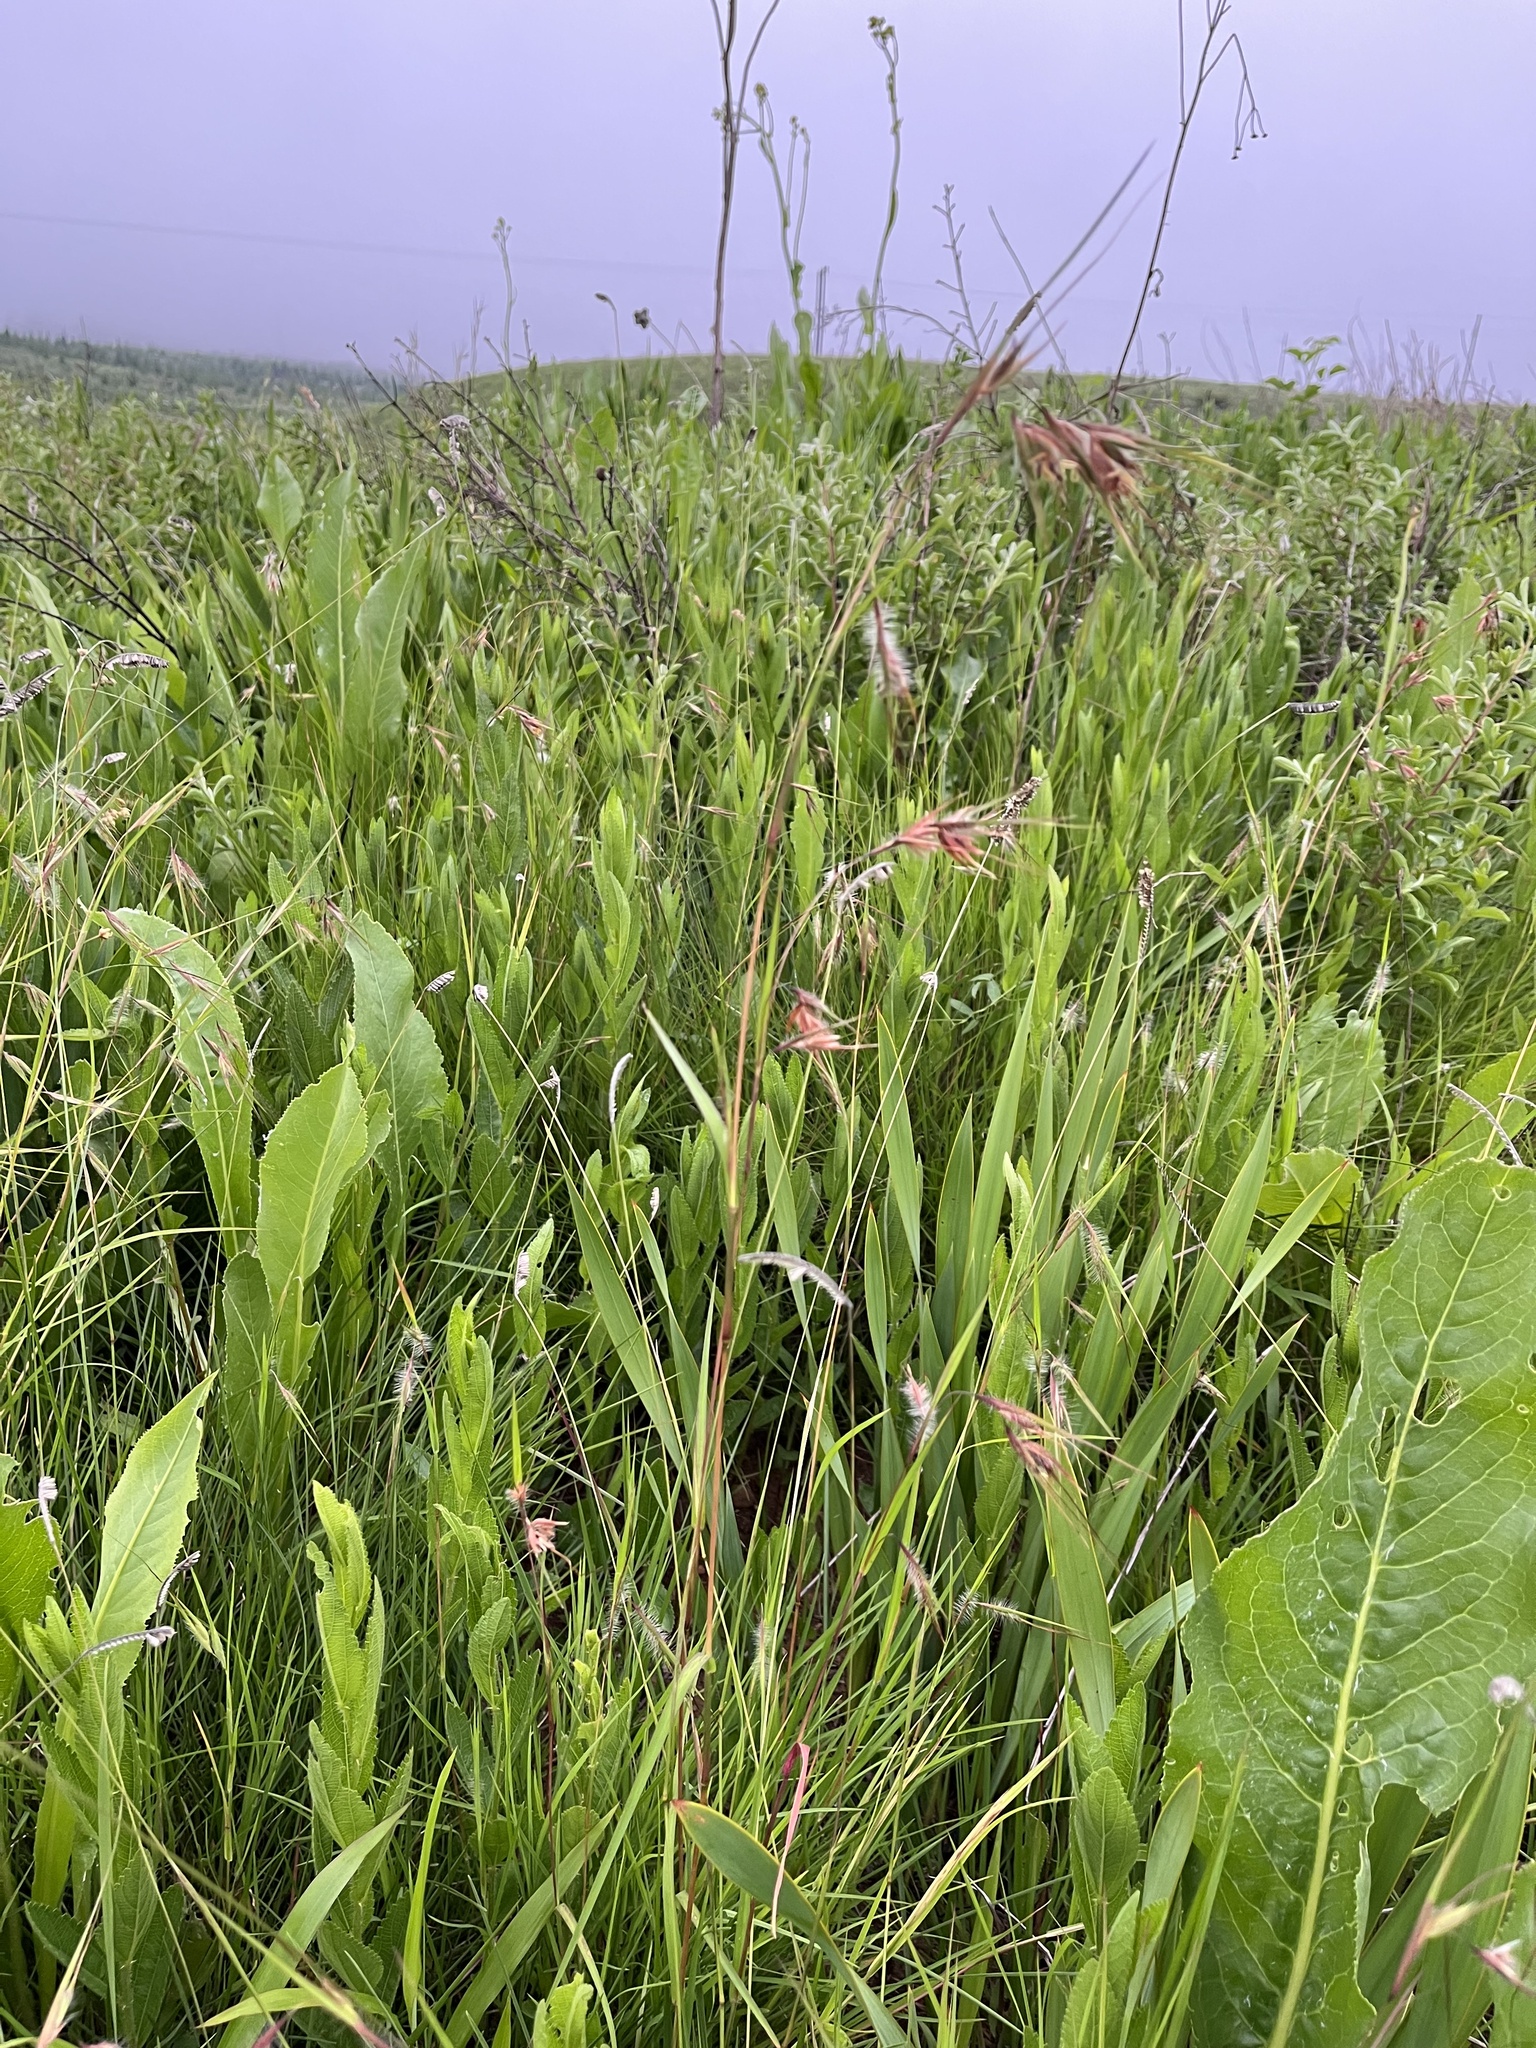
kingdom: Plantae
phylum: Tracheophyta
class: Liliopsida
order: Poales
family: Poaceae
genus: Themeda
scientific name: Themeda triandra
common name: Kangaroo grass
